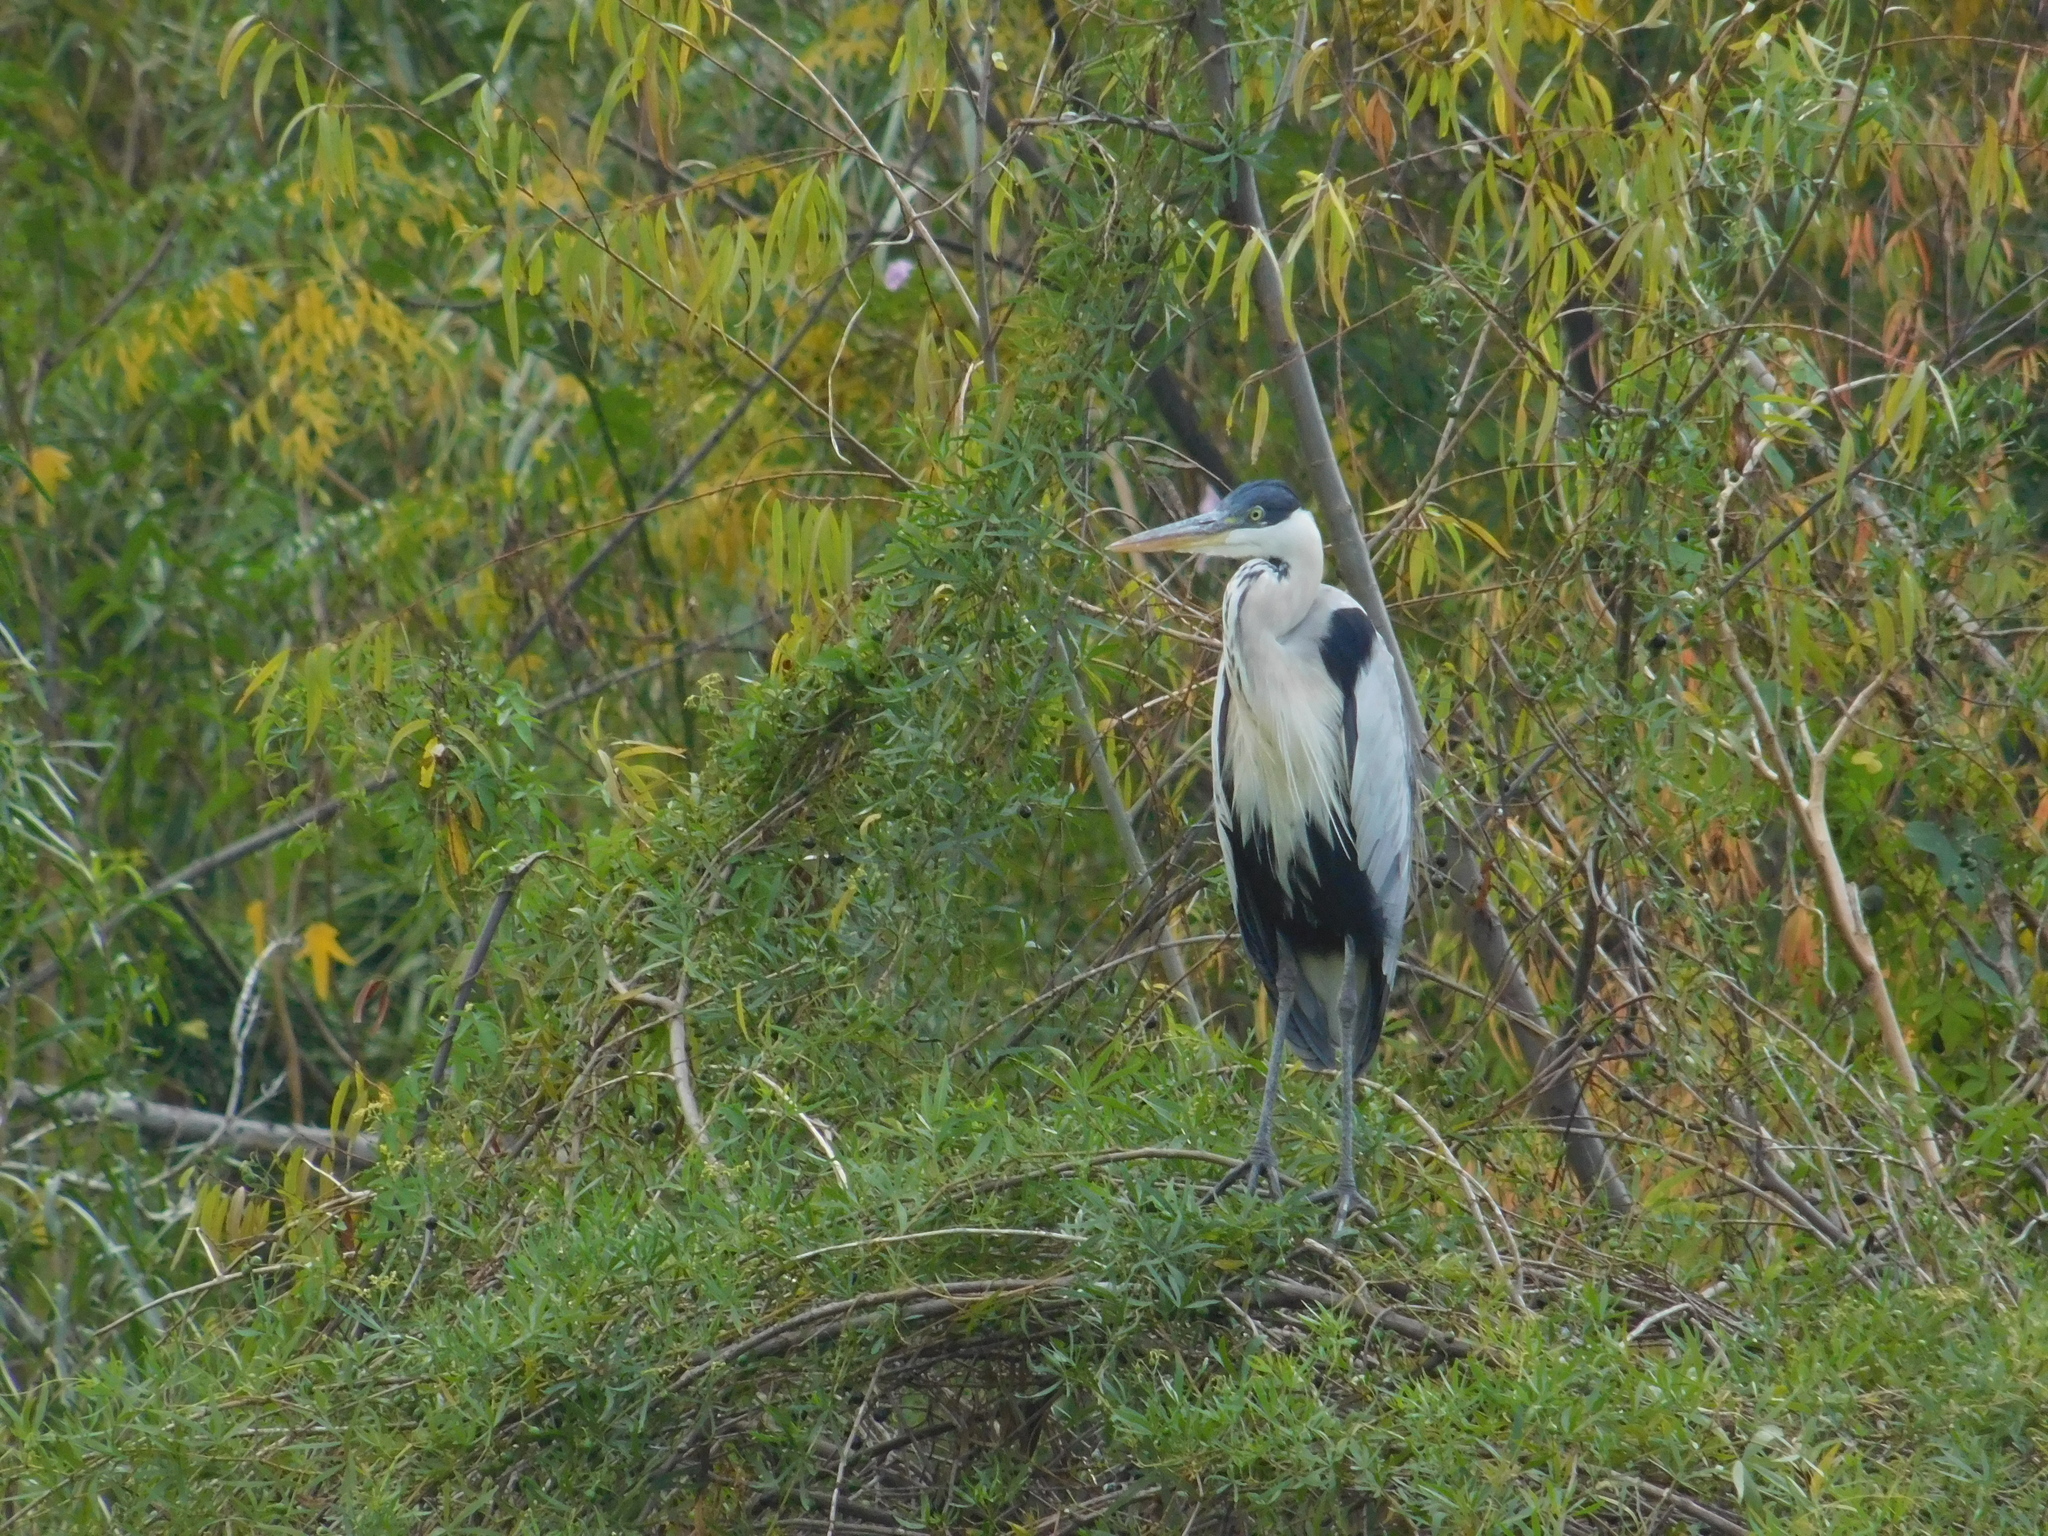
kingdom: Animalia
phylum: Chordata
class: Aves
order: Pelecaniformes
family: Ardeidae
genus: Ardea
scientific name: Ardea cocoi
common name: Cocoi heron
